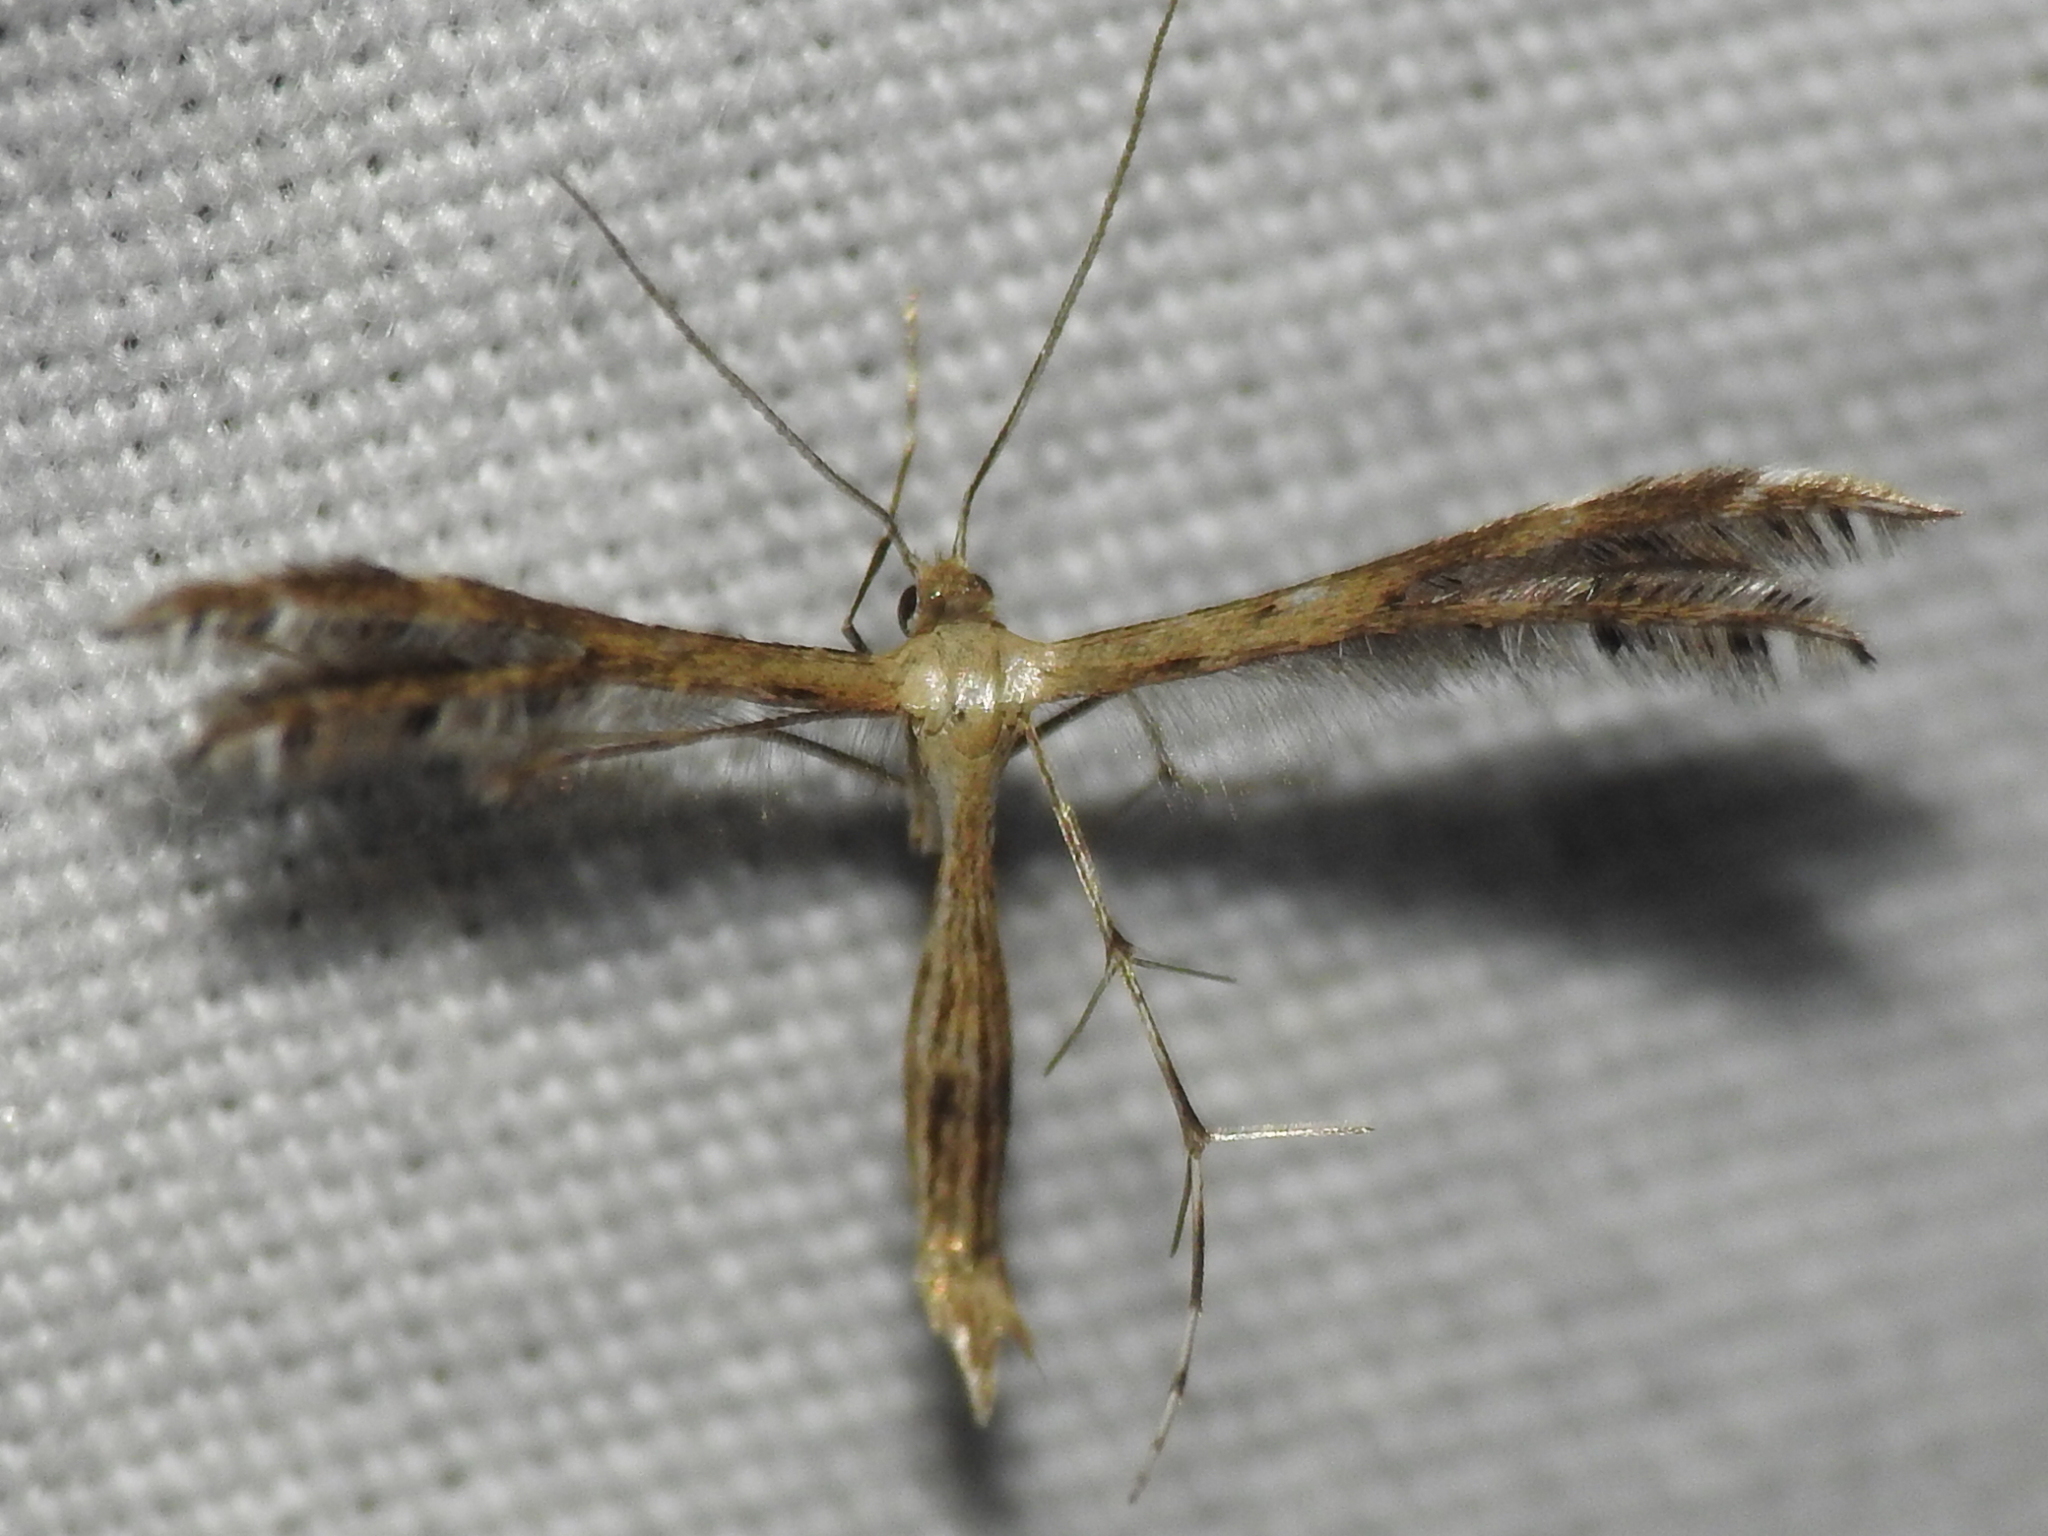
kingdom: Animalia
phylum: Arthropoda
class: Insecta
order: Lepidoptera
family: Pterophoridae
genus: Buckleria
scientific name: Buckleria parvulus
